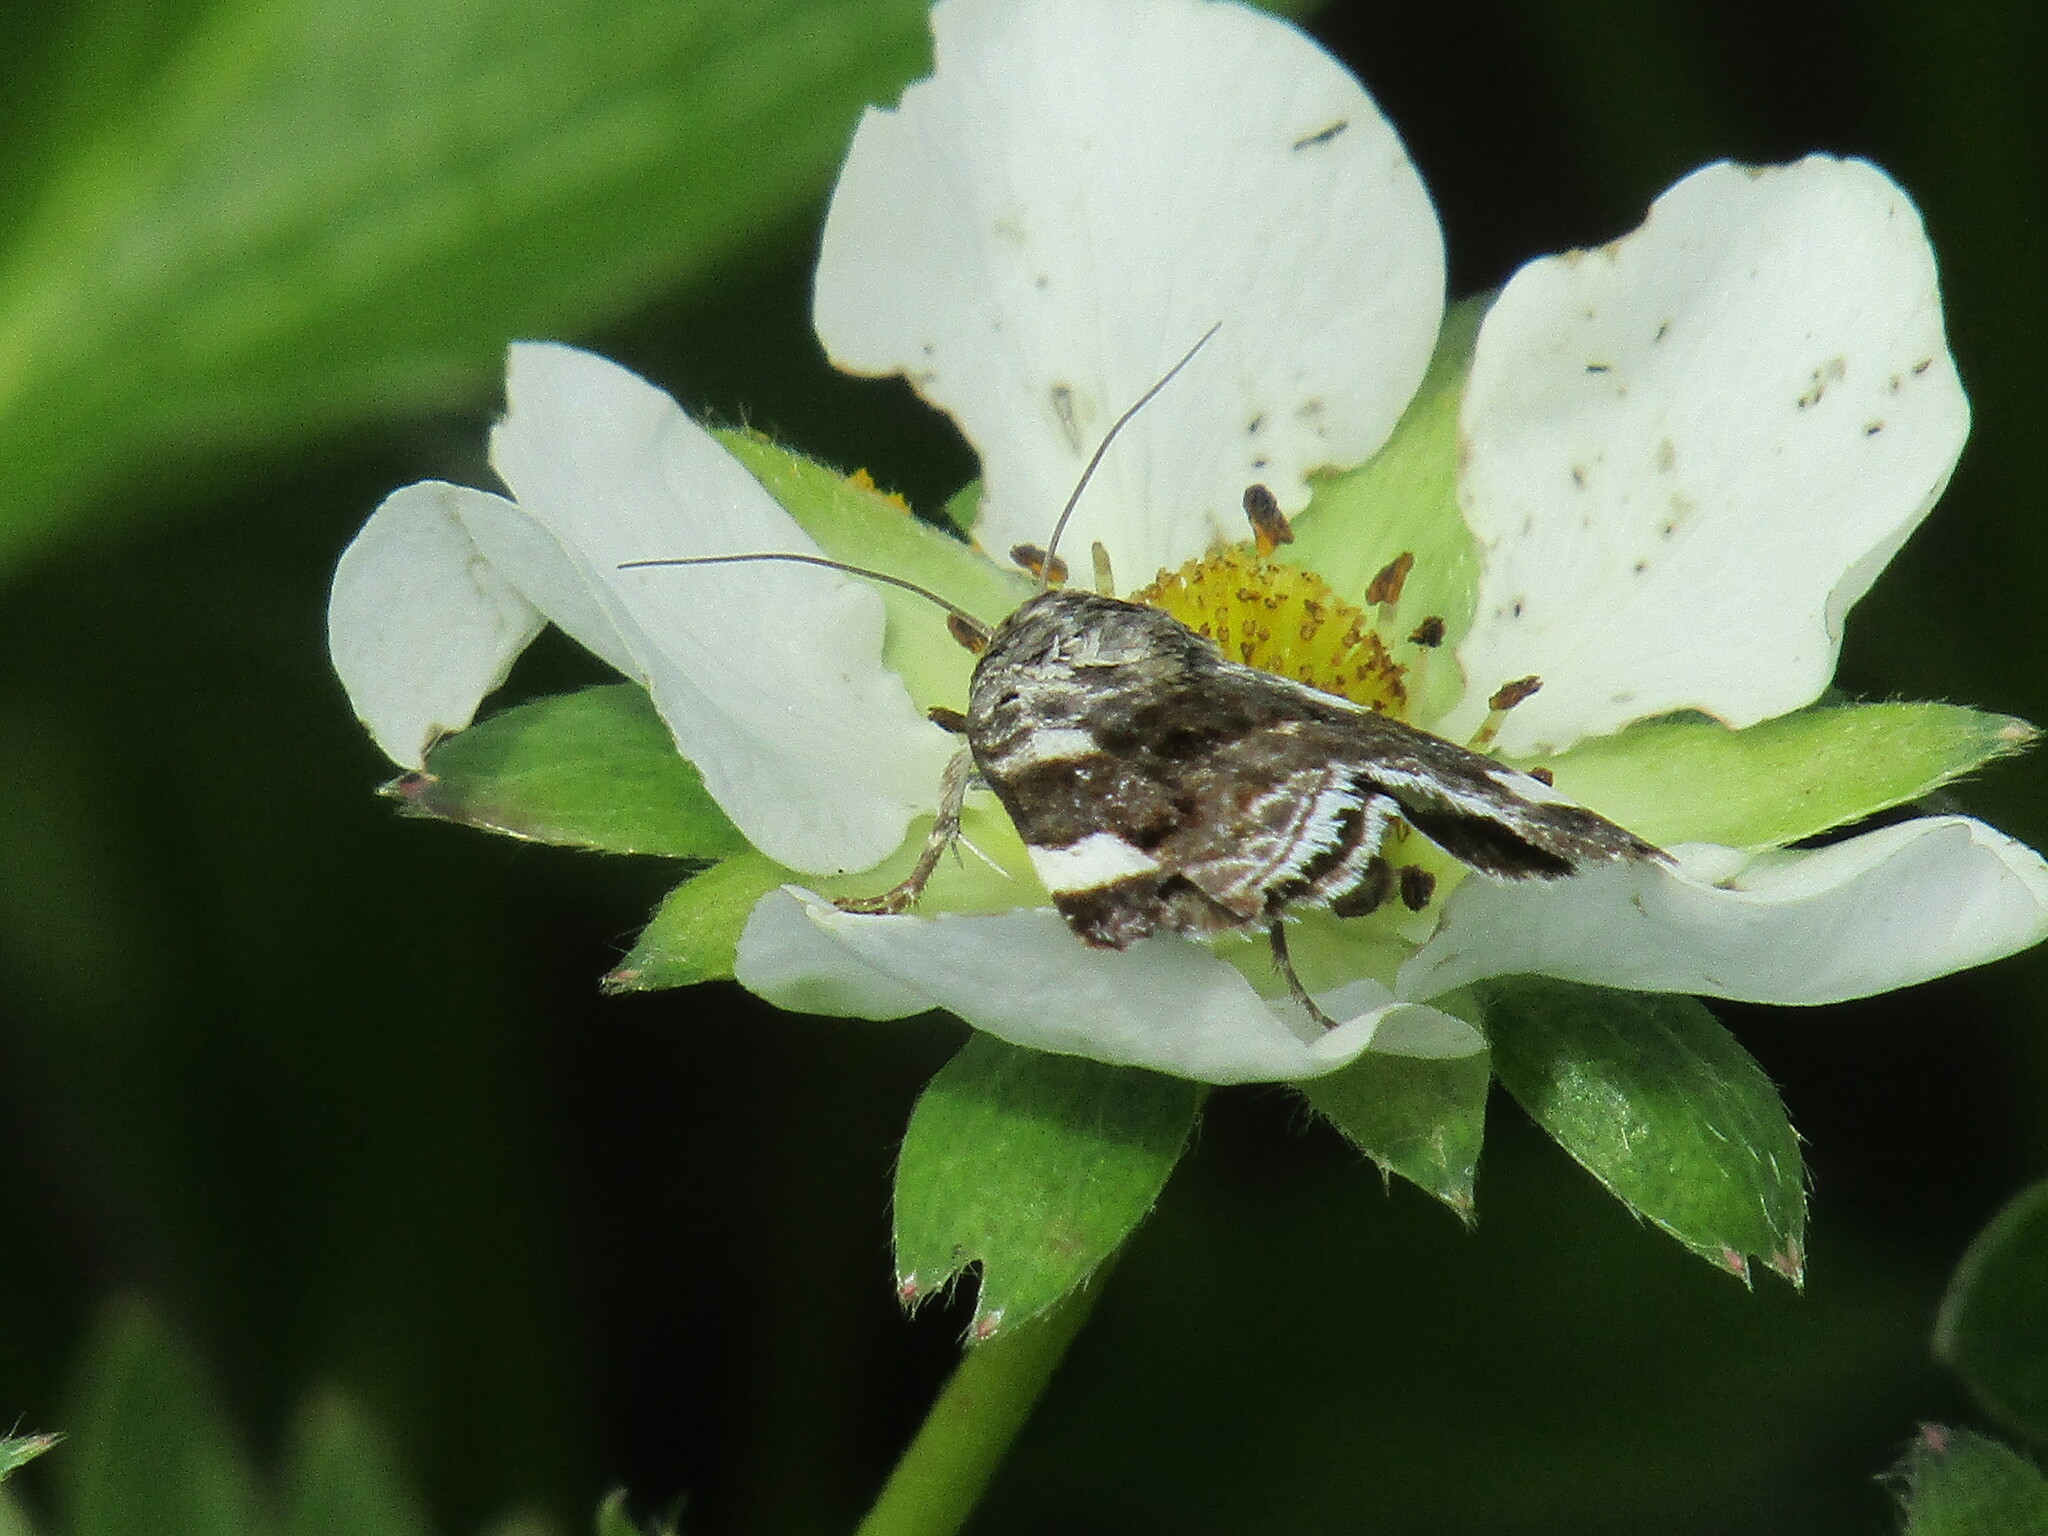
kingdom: Animalia
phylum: Arthropoda
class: Insecta
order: Lepidoptera
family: Noctuidae
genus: Acontia
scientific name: Acontia lucida
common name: Pale shoulder
